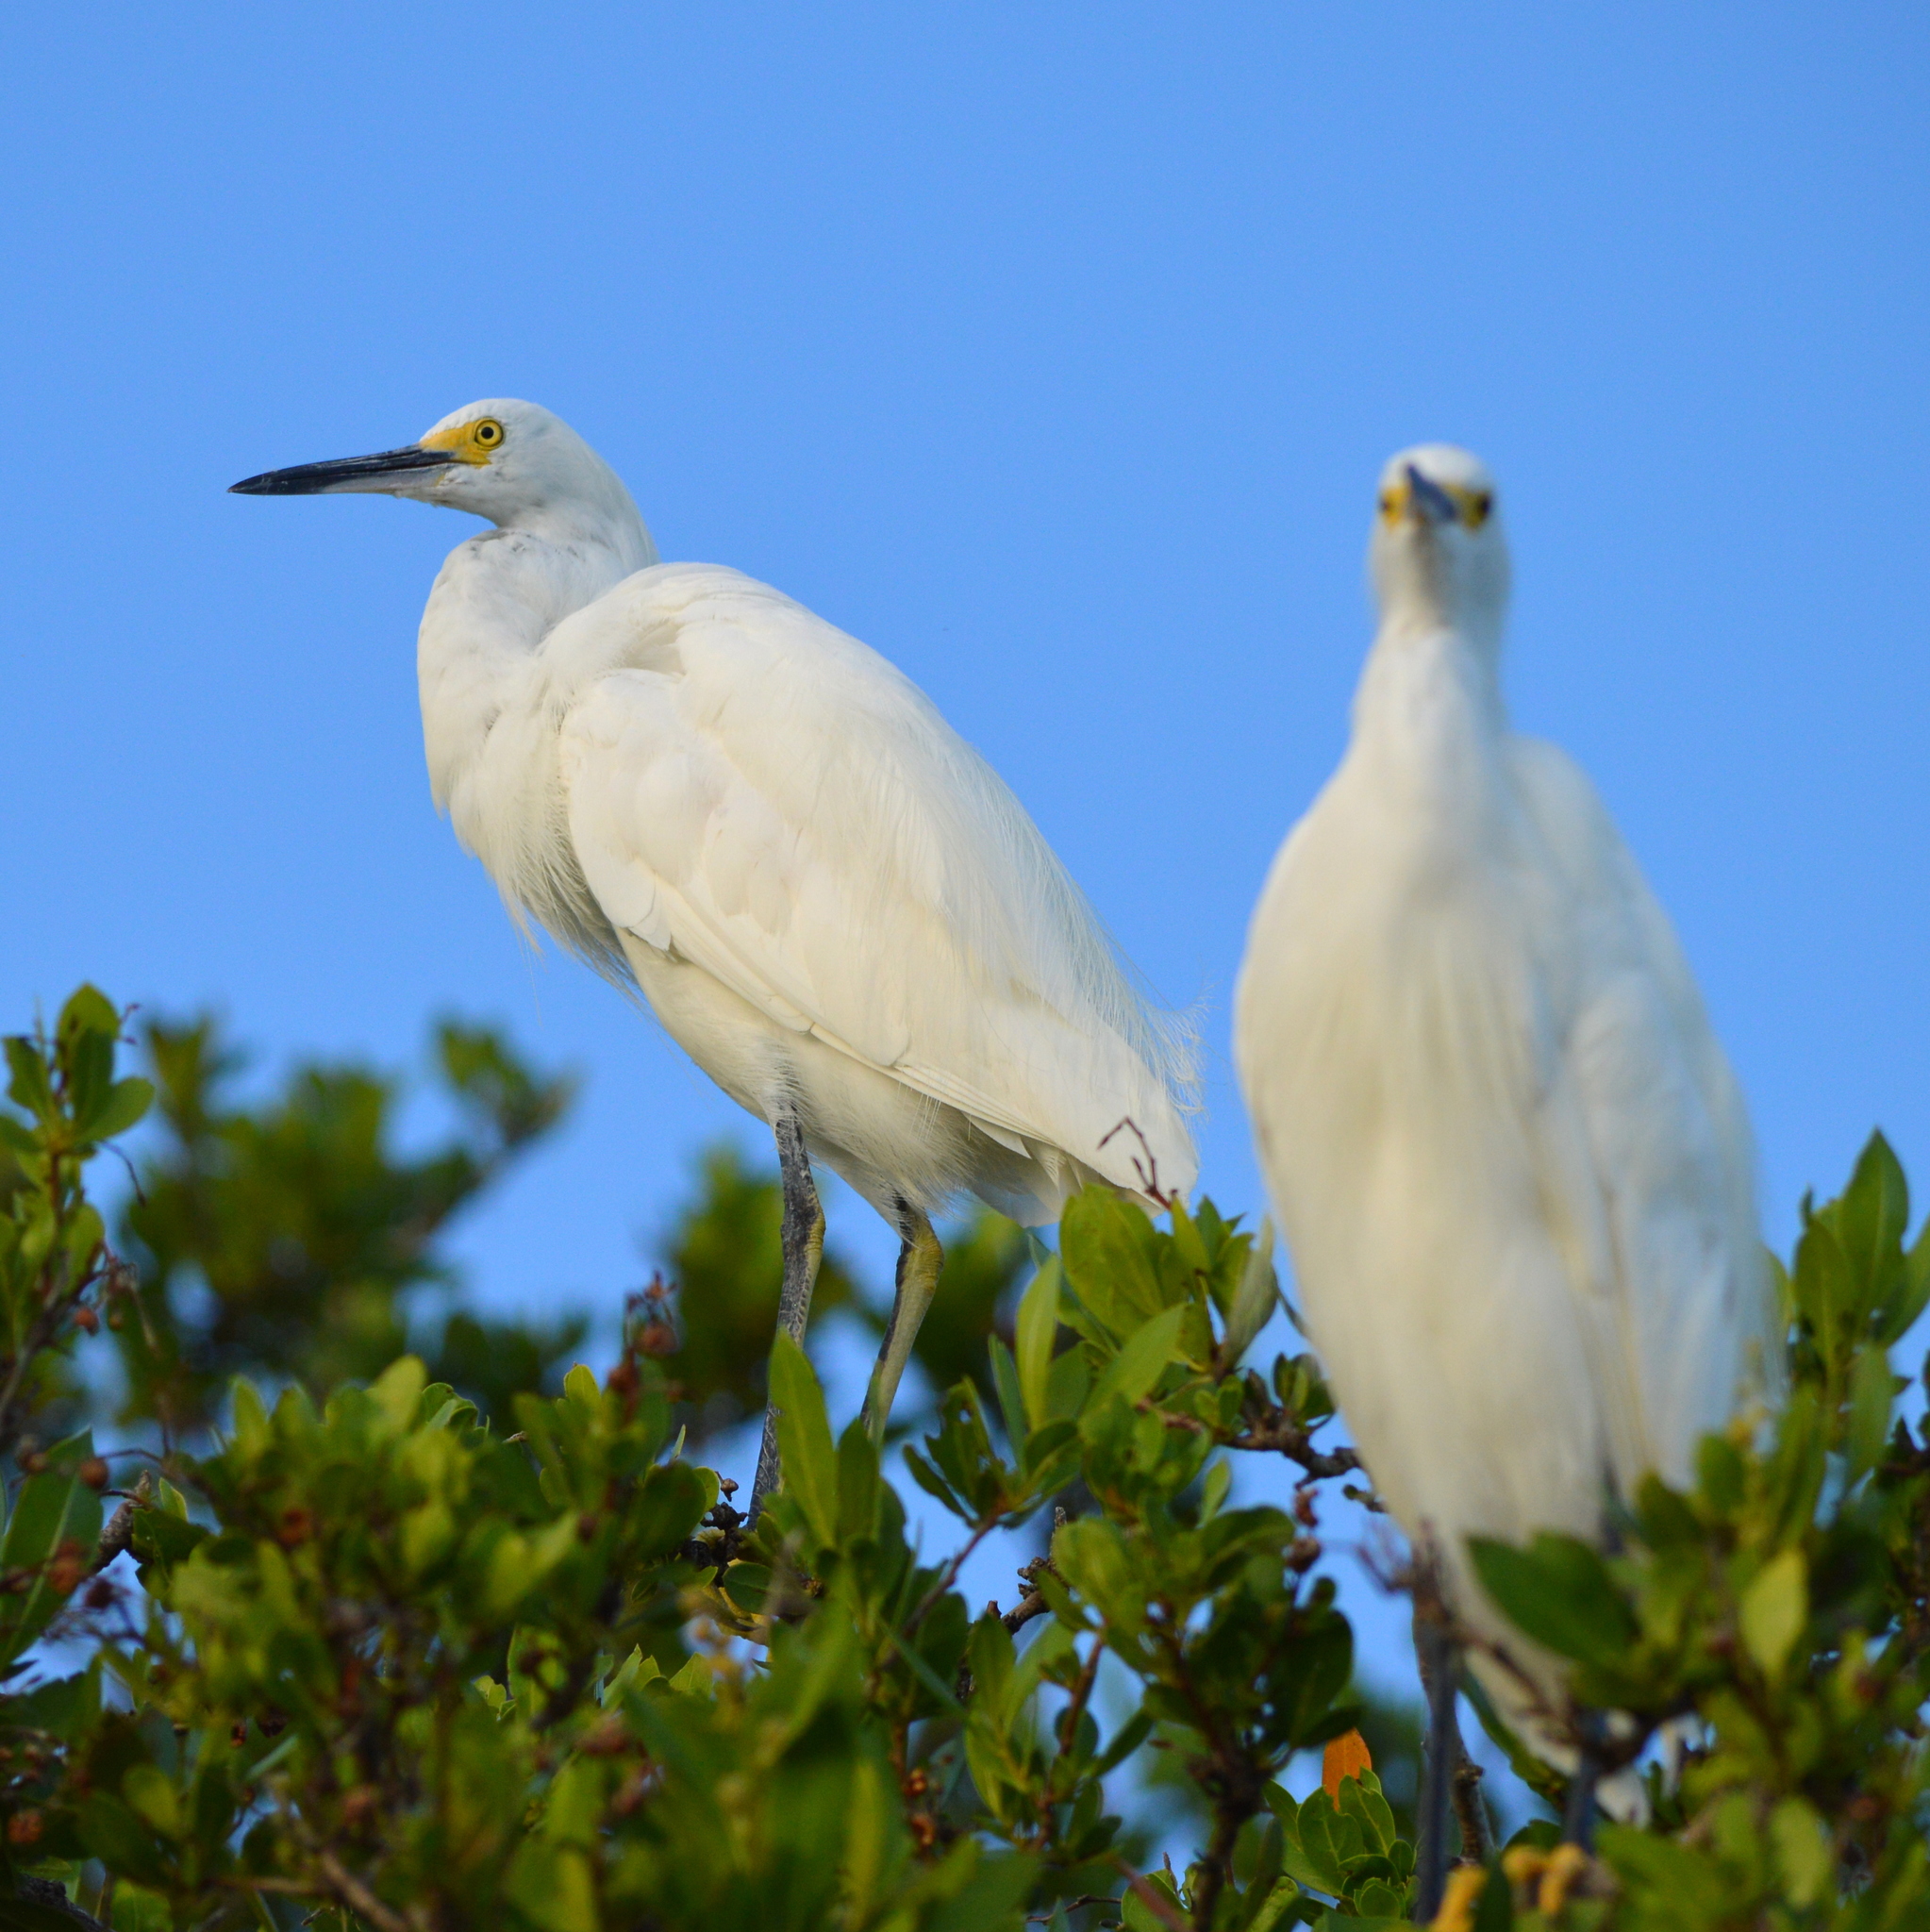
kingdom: Animalia
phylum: Chordata
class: Aves
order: Pelecaniformes
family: Ardeidae
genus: Egretta
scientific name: Egretta thula
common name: Snowy egret
